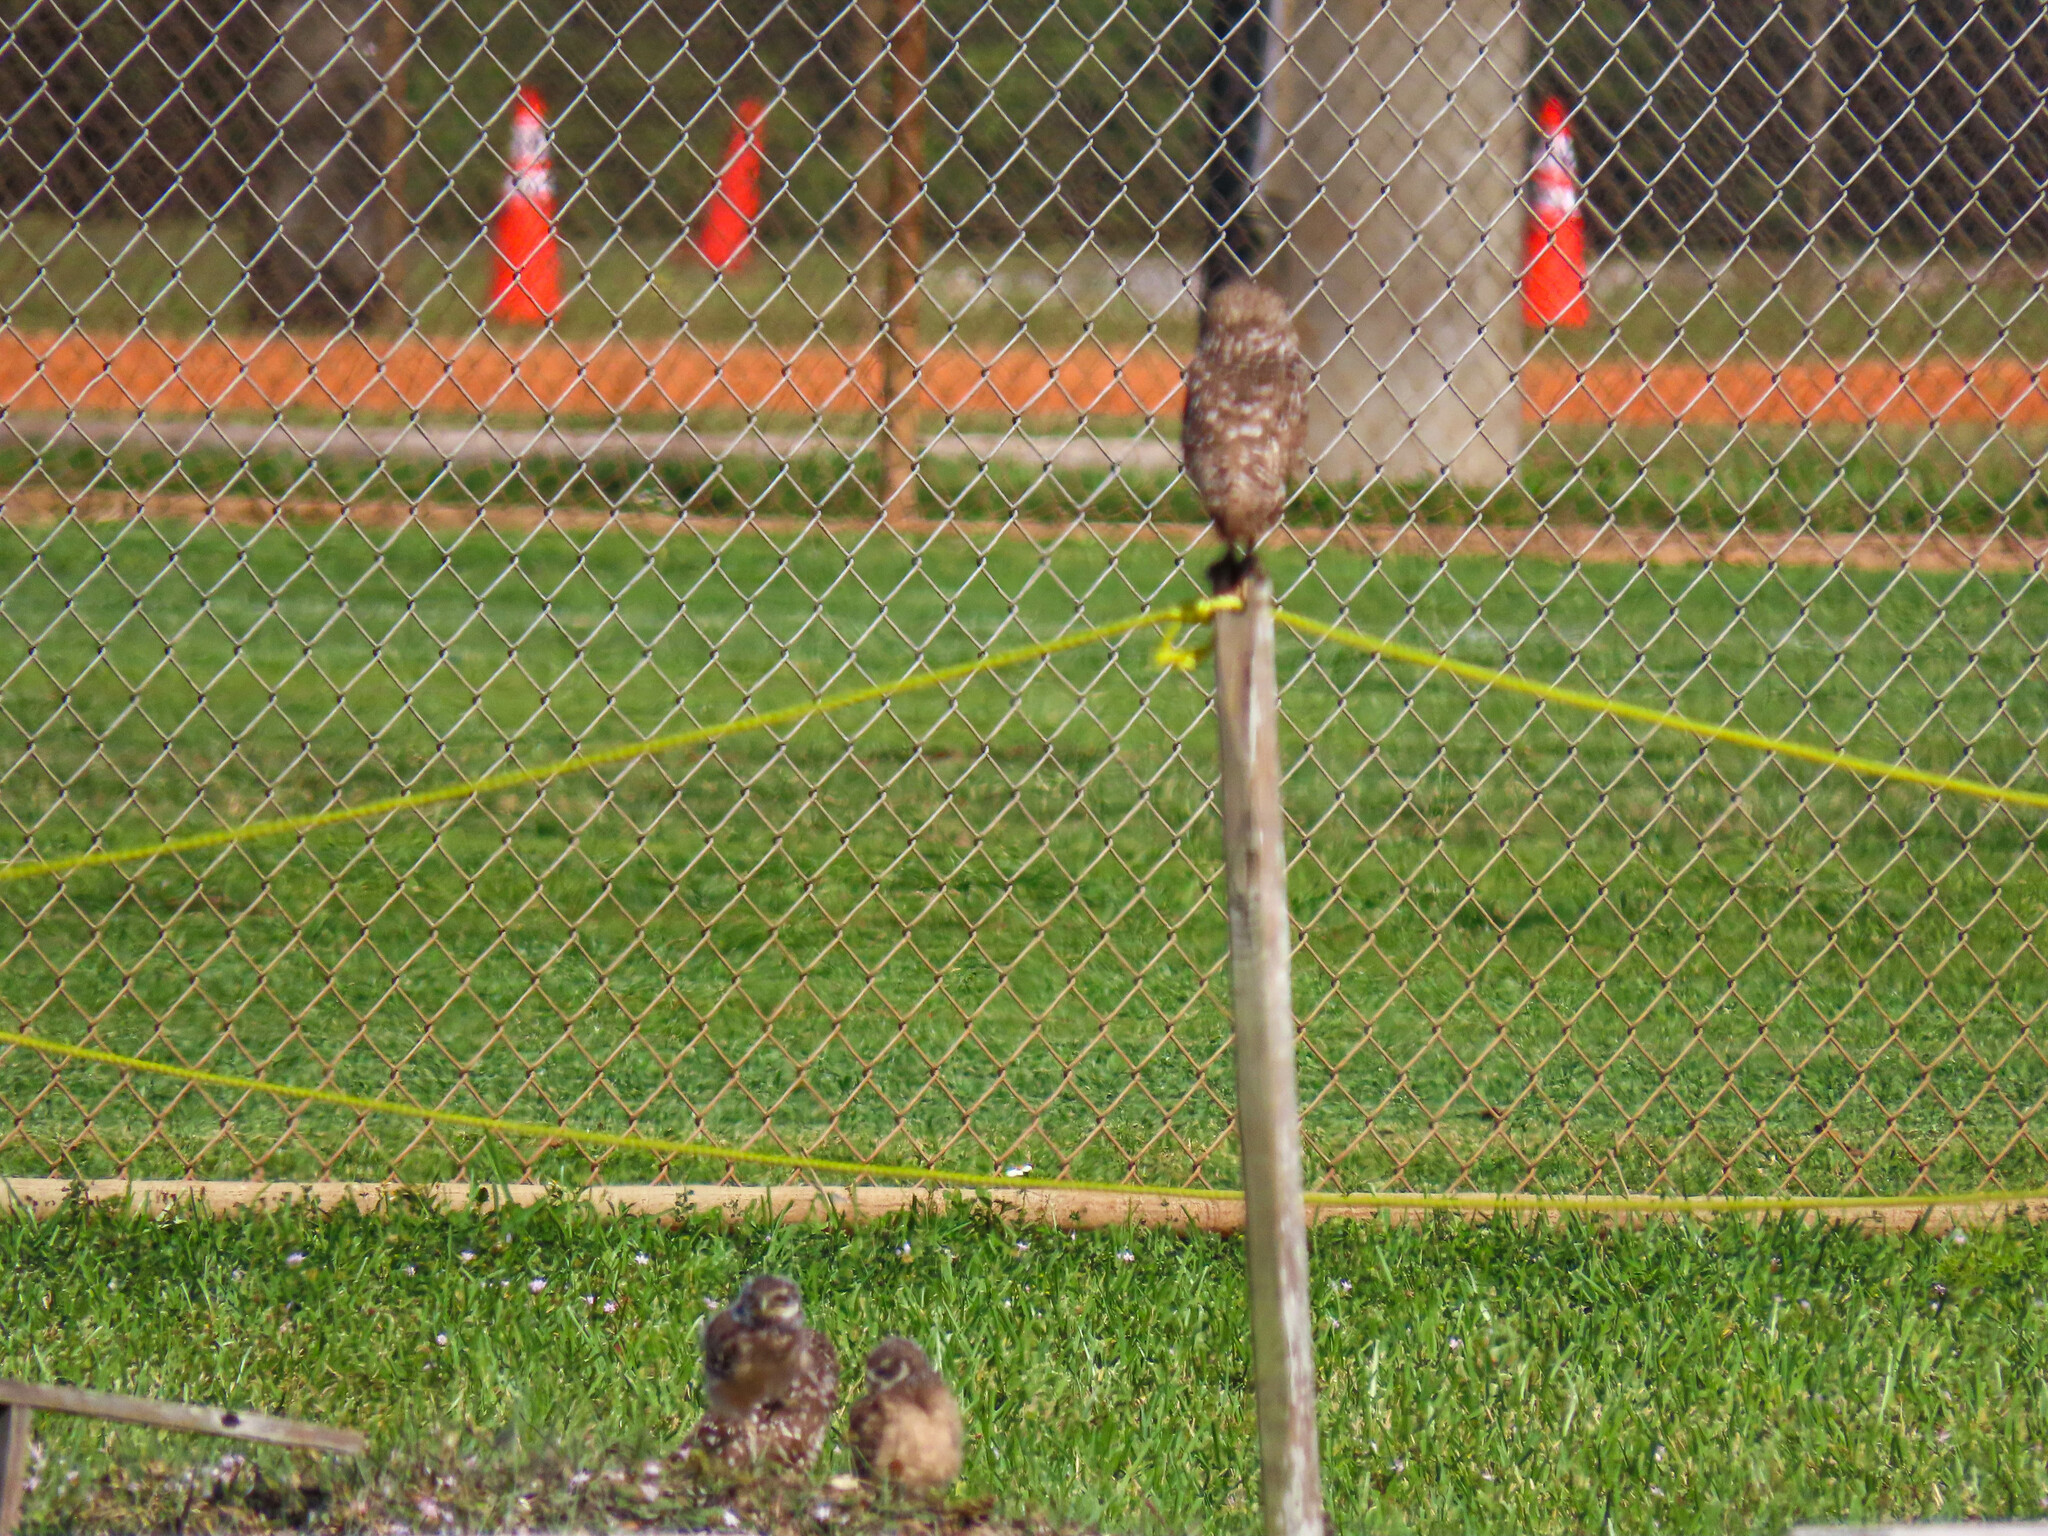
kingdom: Animalia
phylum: Chordata
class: Aves
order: Strigiformes
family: Strigidae
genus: Athene
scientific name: Athene cunicularia
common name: Burrowing owl
